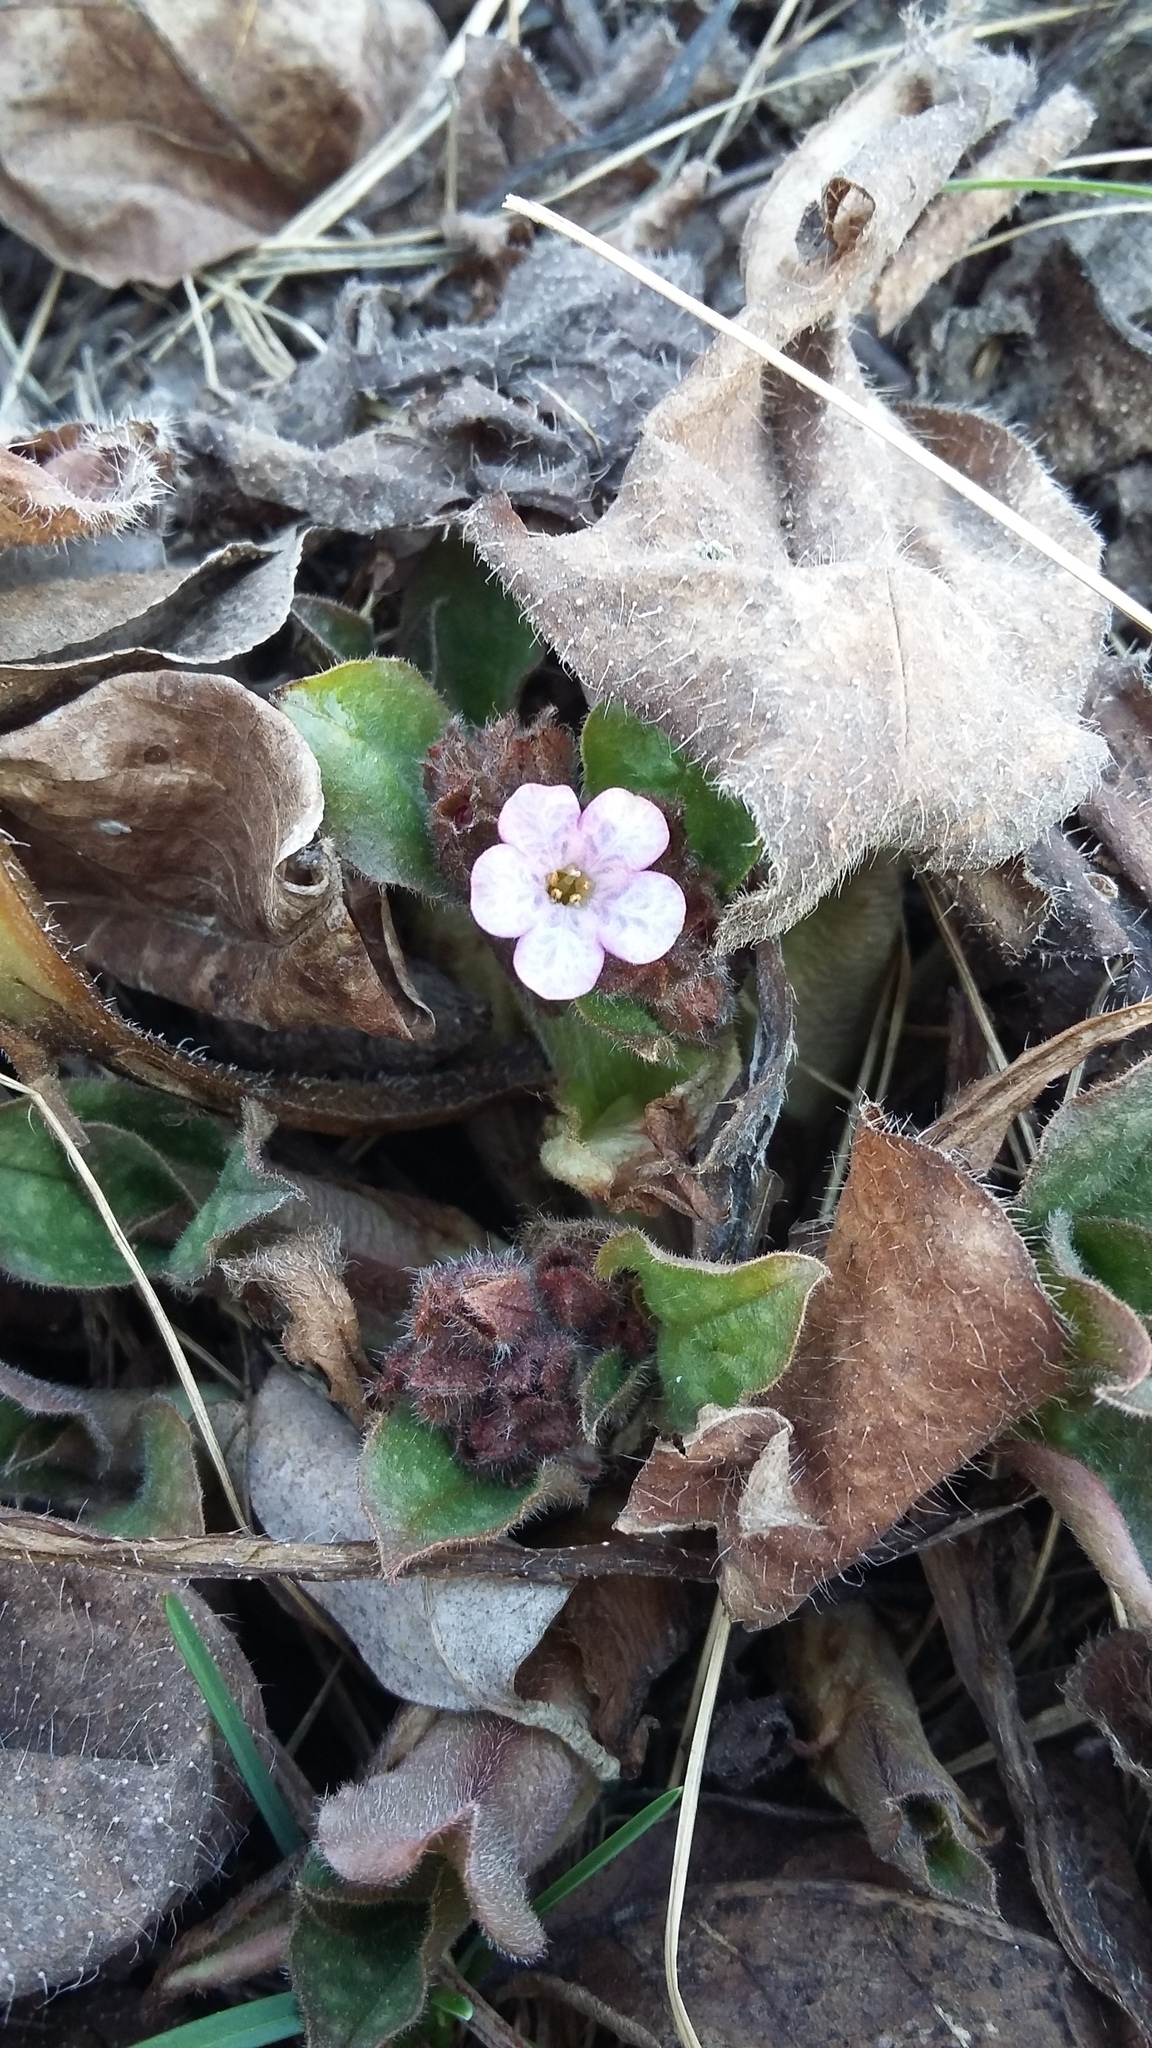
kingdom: Plantae
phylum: Tracheophyta
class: Magnoliopsida
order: Boraginales
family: Boraginaceae
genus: Pulmonaria
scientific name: Pulmonaria obscura
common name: Suffolk lungwort
